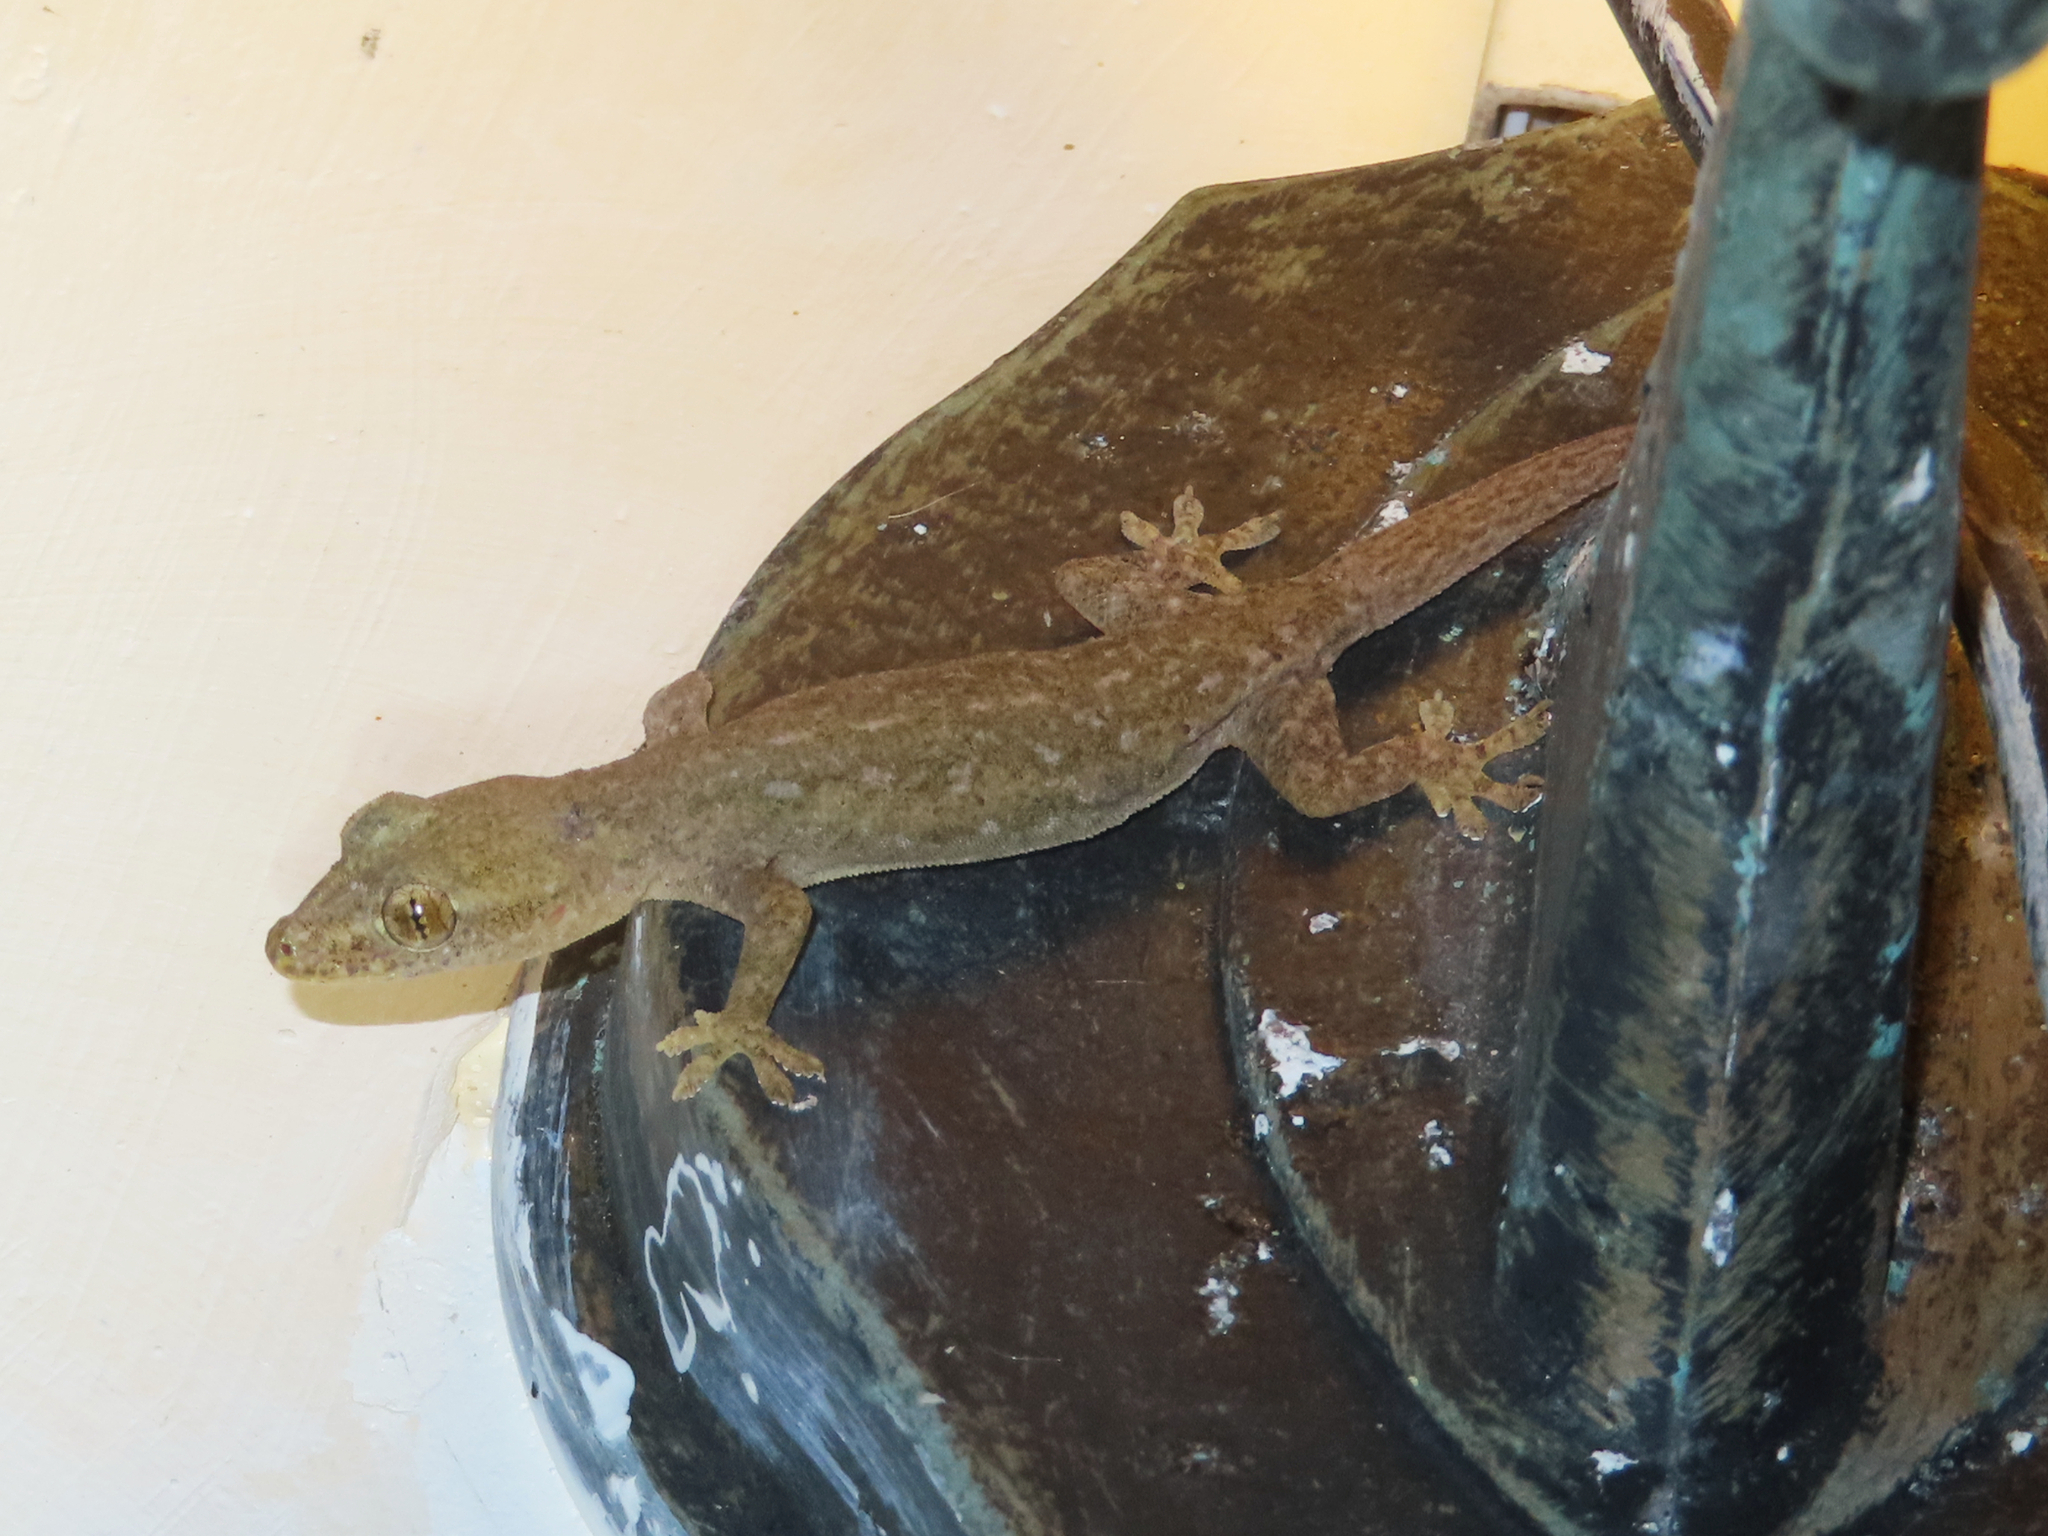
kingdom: Animalia
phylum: Chordata
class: Squamata
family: Gekkonidae
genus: Hemidactylus
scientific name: Hemidactylus frenatus
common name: Common house gecko
